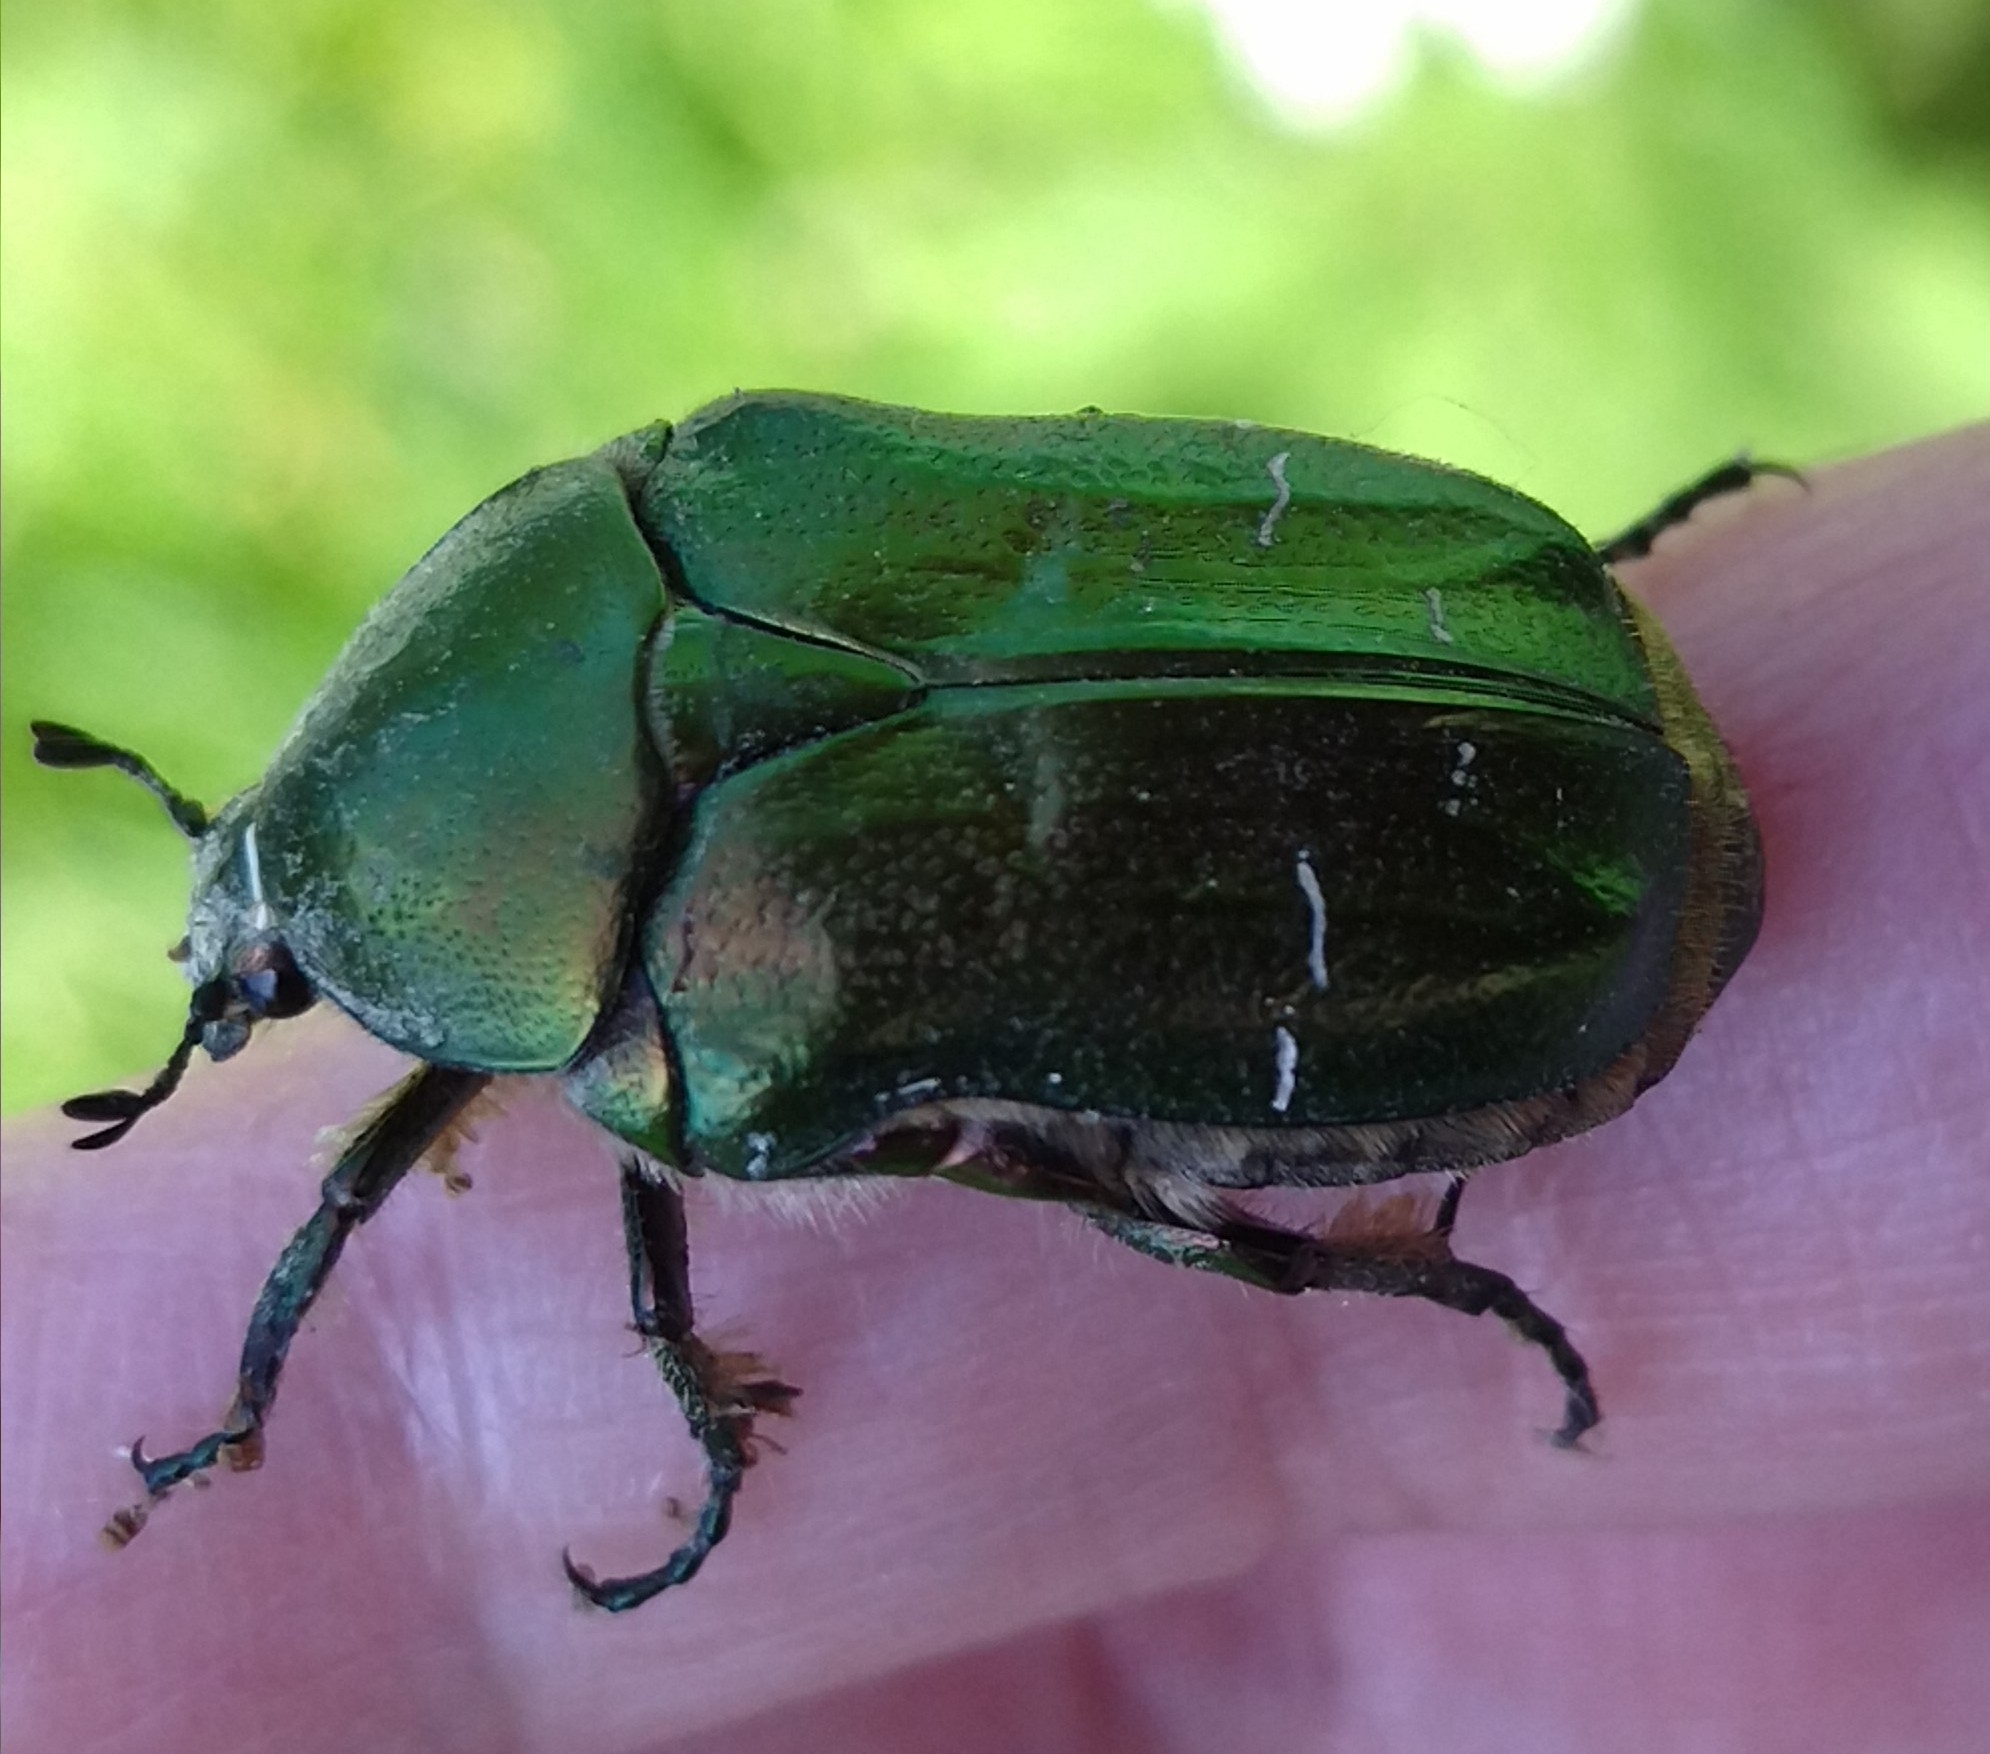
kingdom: Animalia
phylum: Arthropoda
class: Insecta
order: Coleoptera
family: Scarabaeidae
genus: Cetonia
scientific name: Cetonia aurata
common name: Rose chafer
